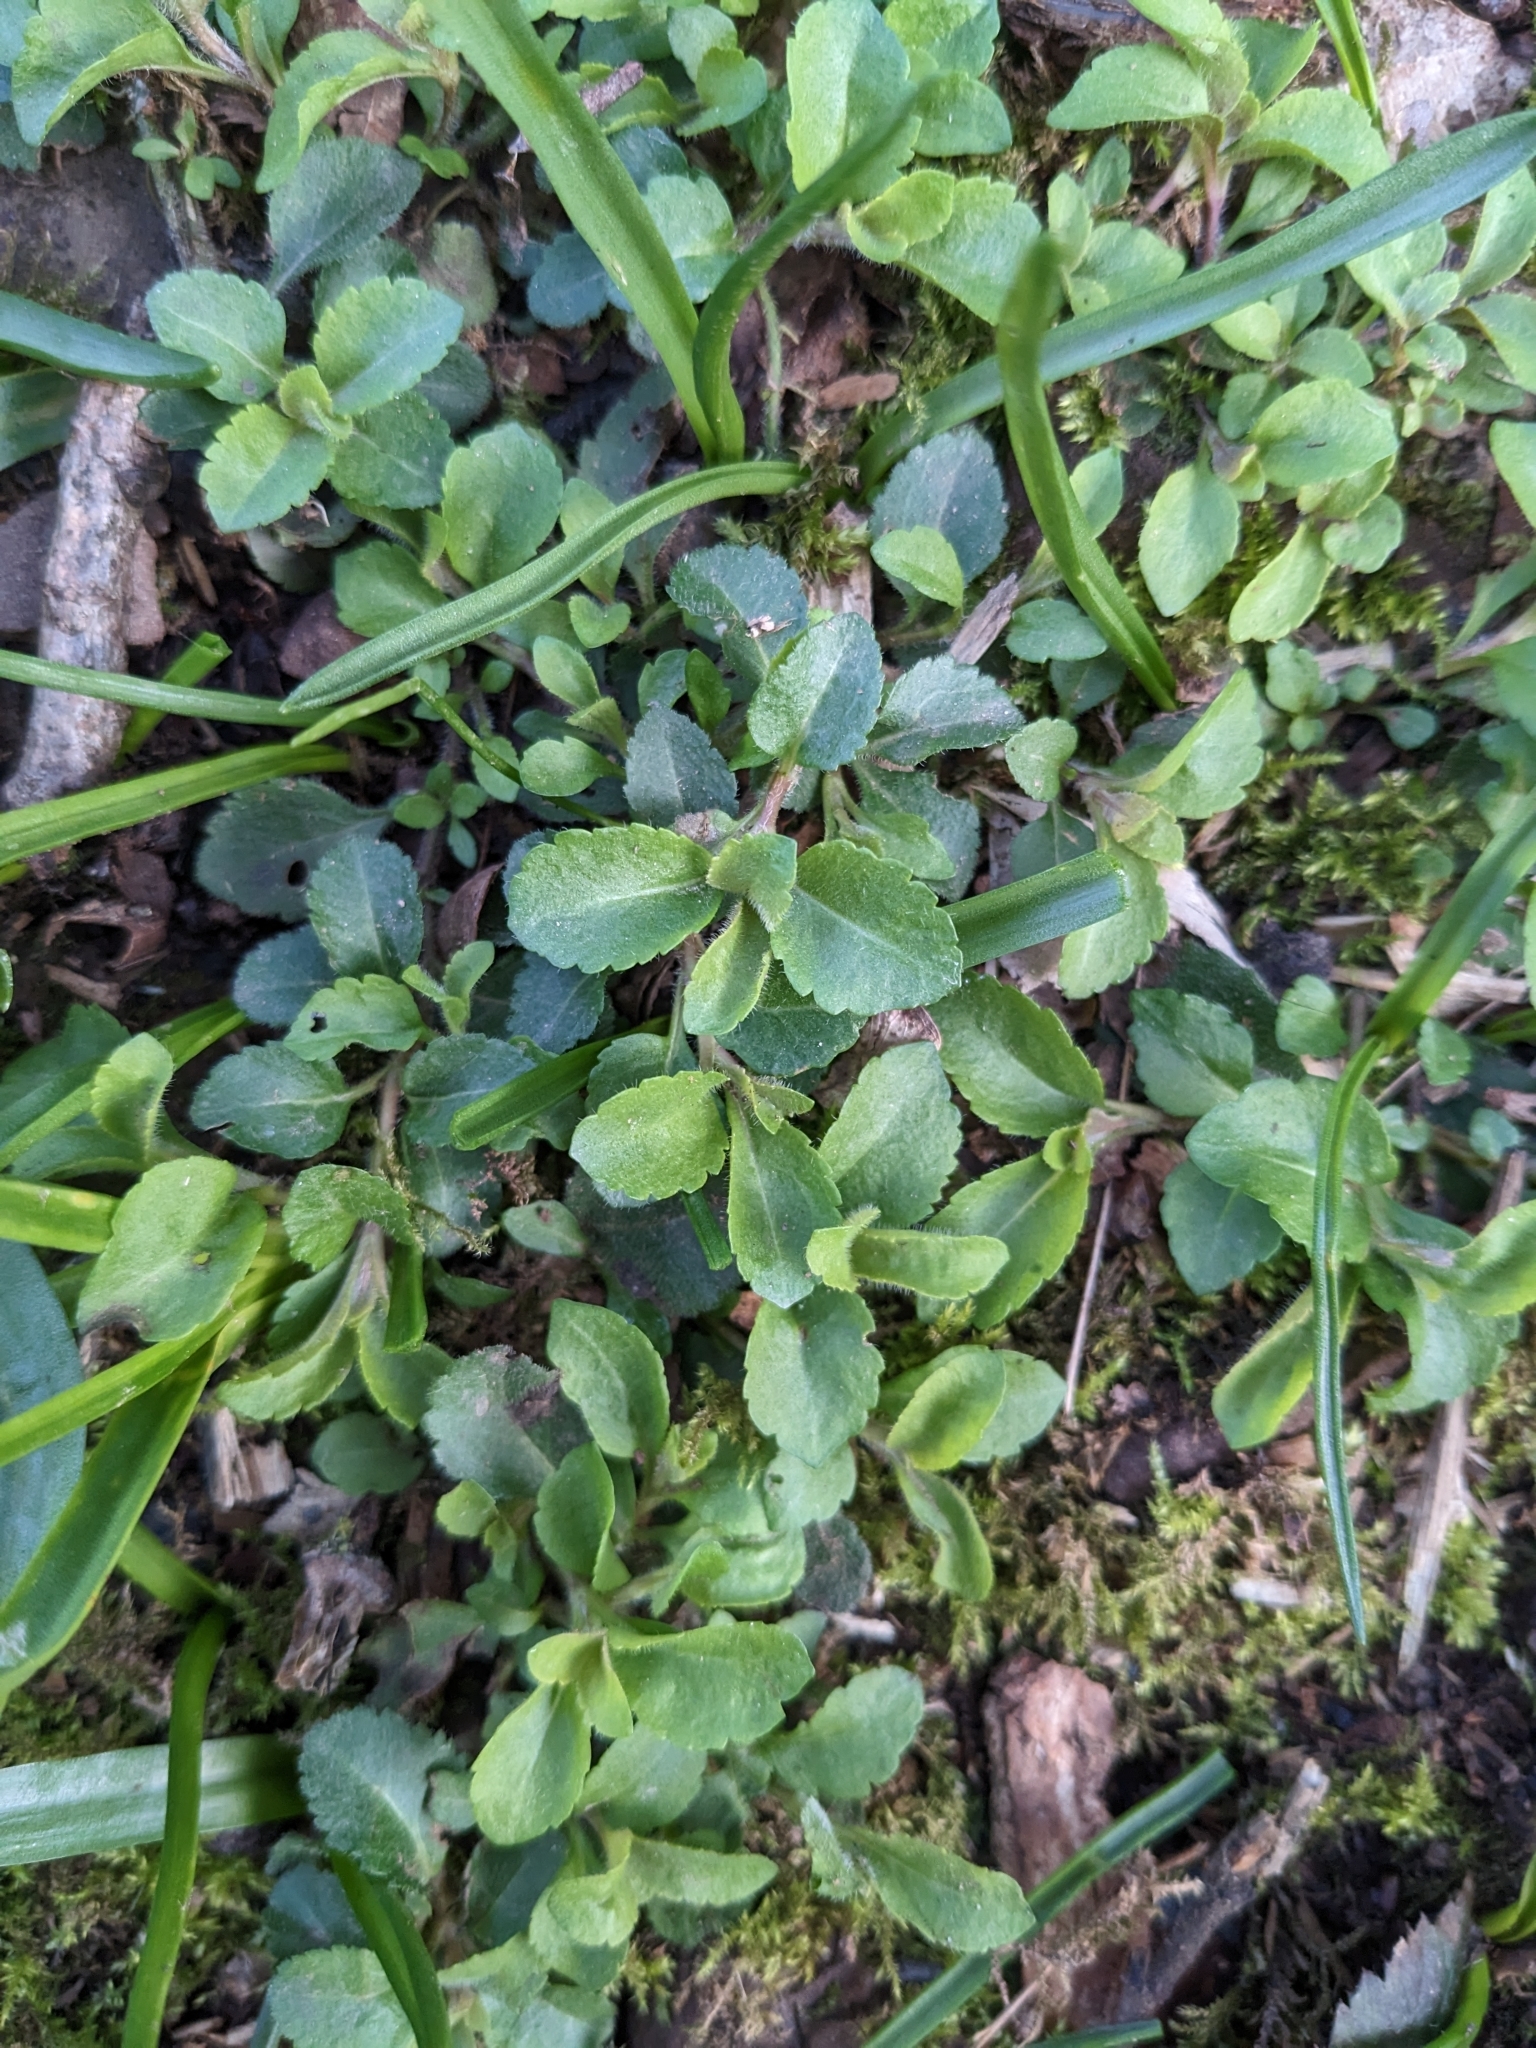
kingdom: Plantae
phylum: Tracheophyta
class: Magnoliopsida
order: Lamiales
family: Plantaginaceae
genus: Veronica
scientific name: Veronica officinalis
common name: Common speedwell
